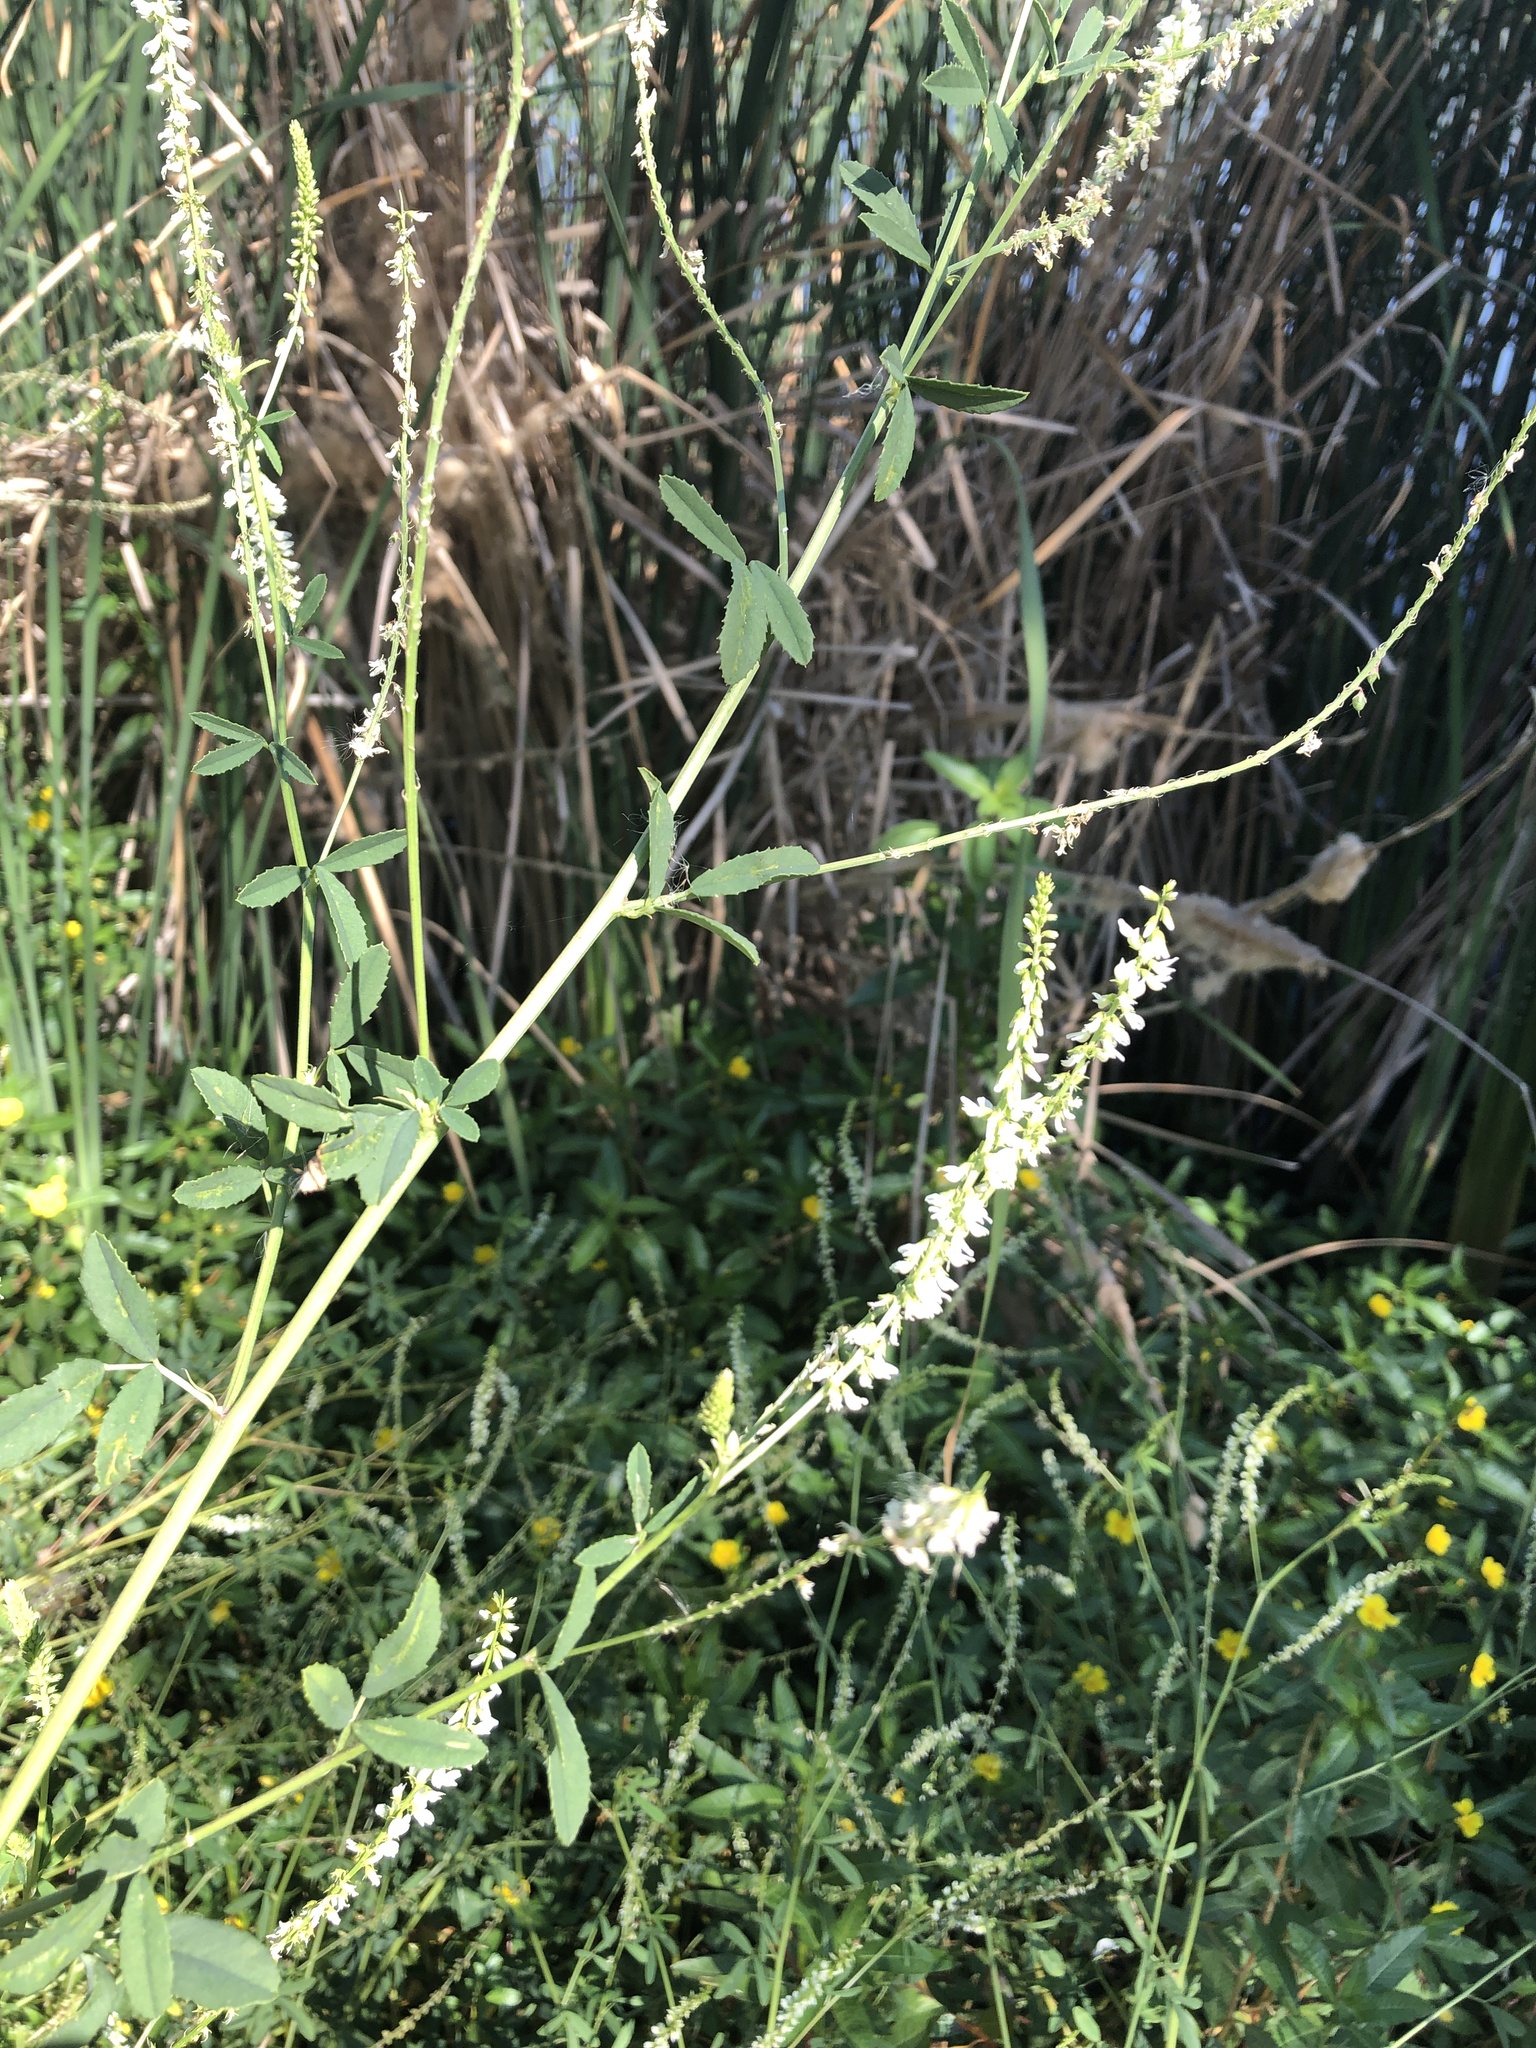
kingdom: Plantae
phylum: Tracheophyta
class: Magnoliopsida
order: Fabales
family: Fabaceae
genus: Melilotus
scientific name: Melilotus albus
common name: White melilot
